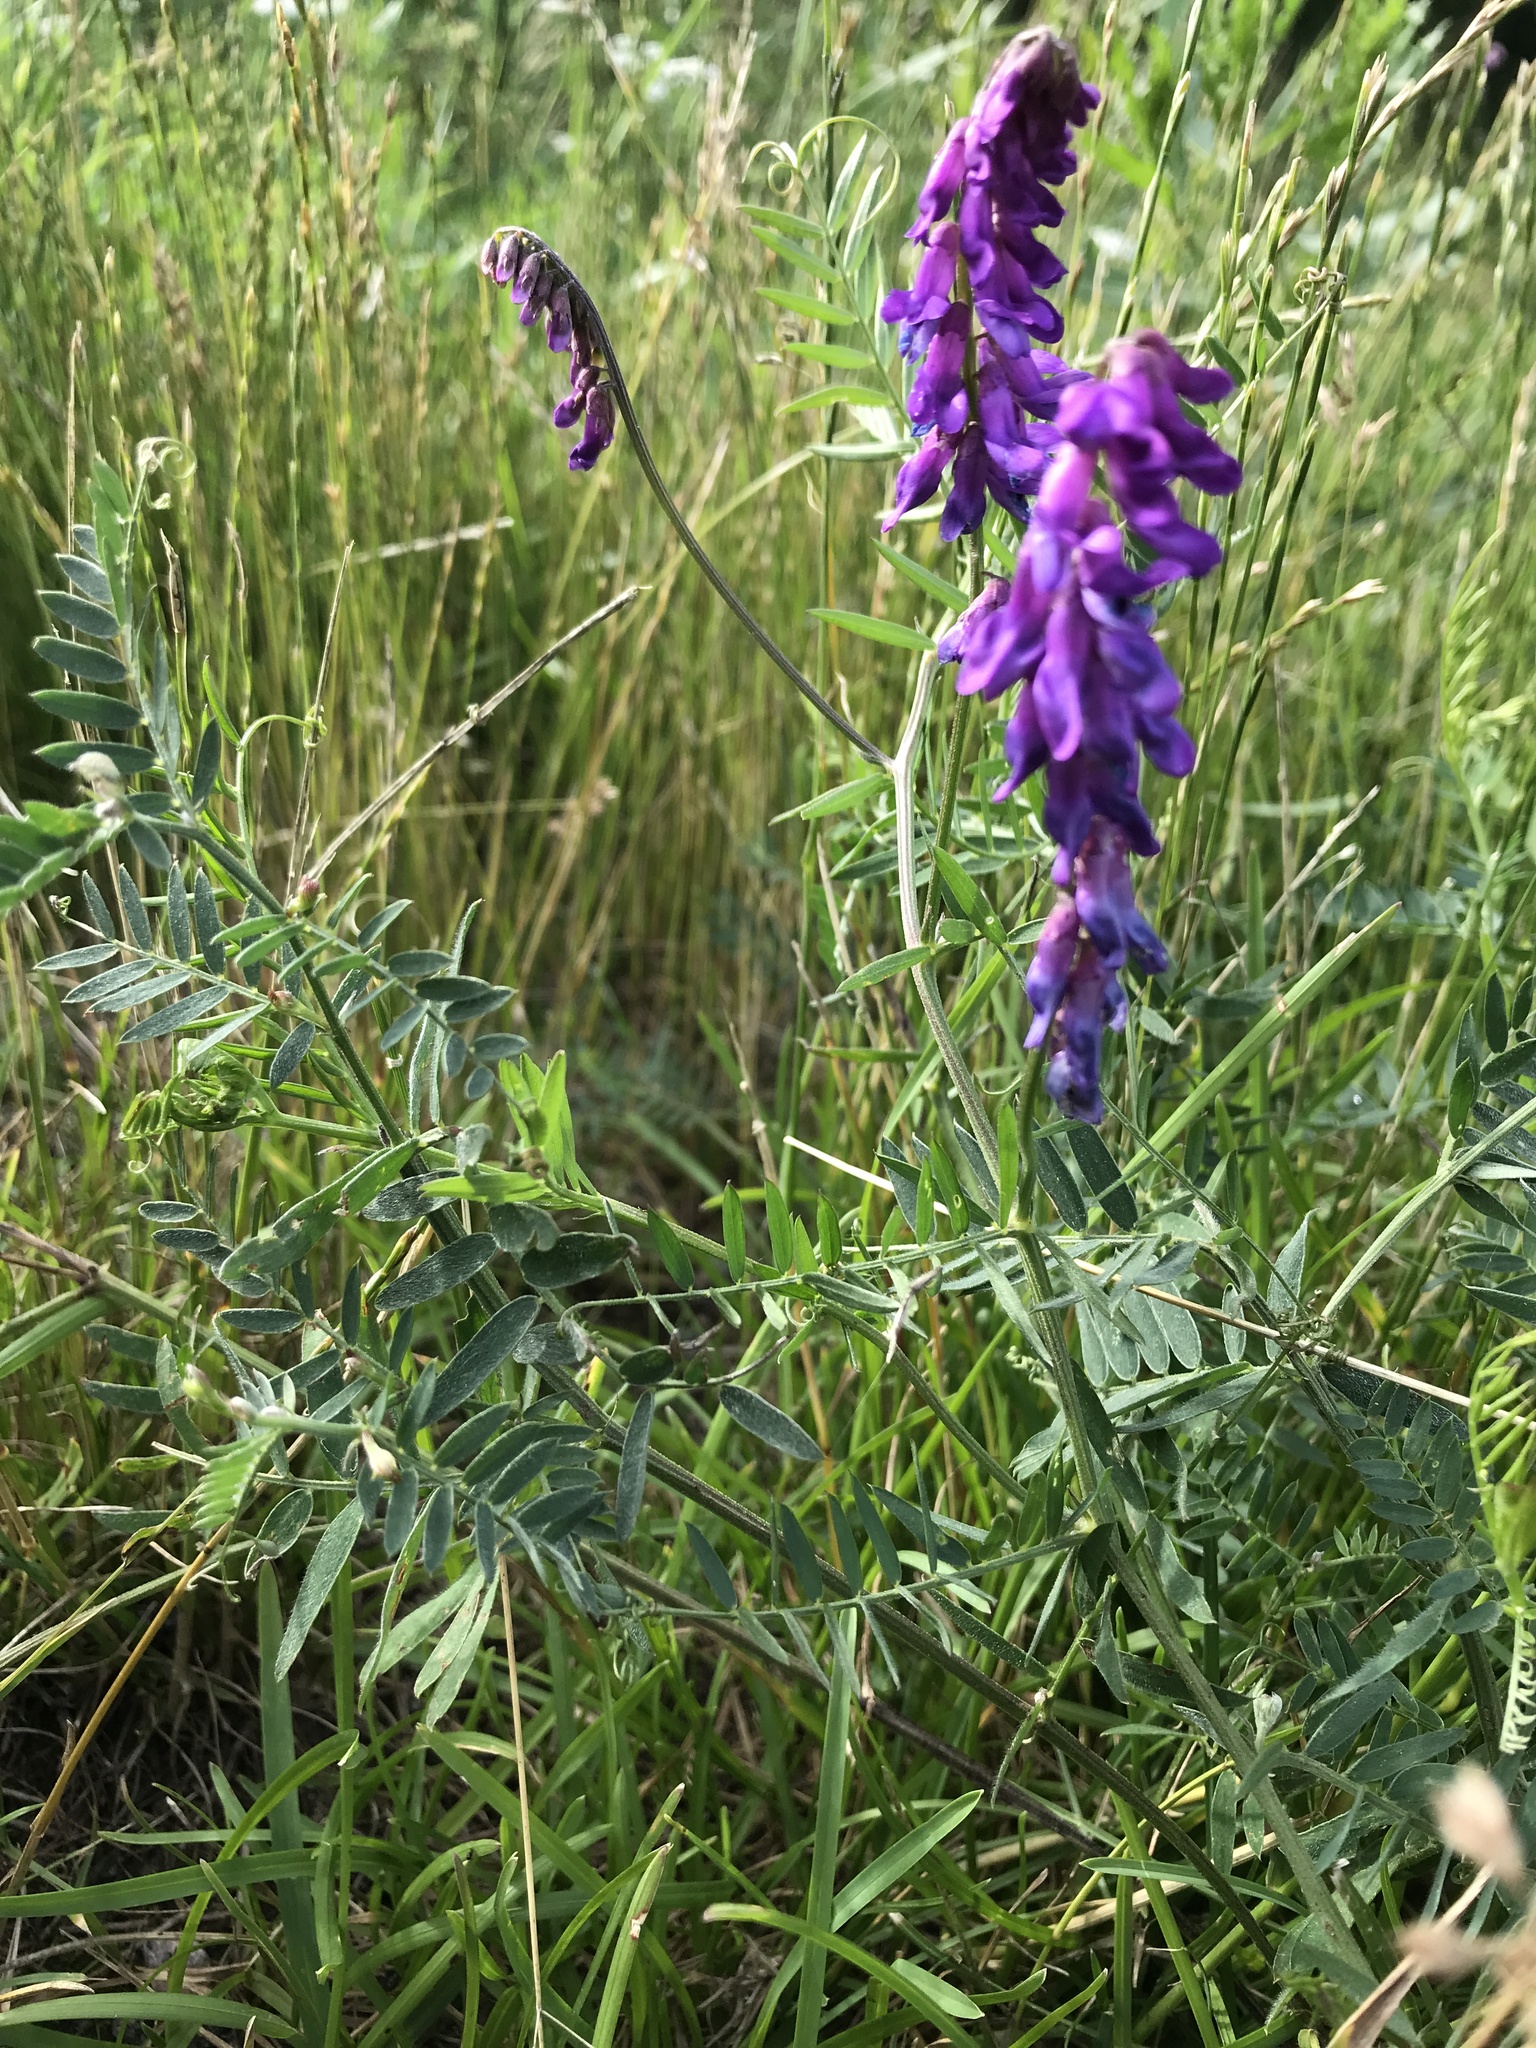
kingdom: Plantae
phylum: Tracheophyta
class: Magnoliopsida
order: Fabales
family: Fabaceae
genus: Vicia
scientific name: Vicia cracca
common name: Bird vetch
